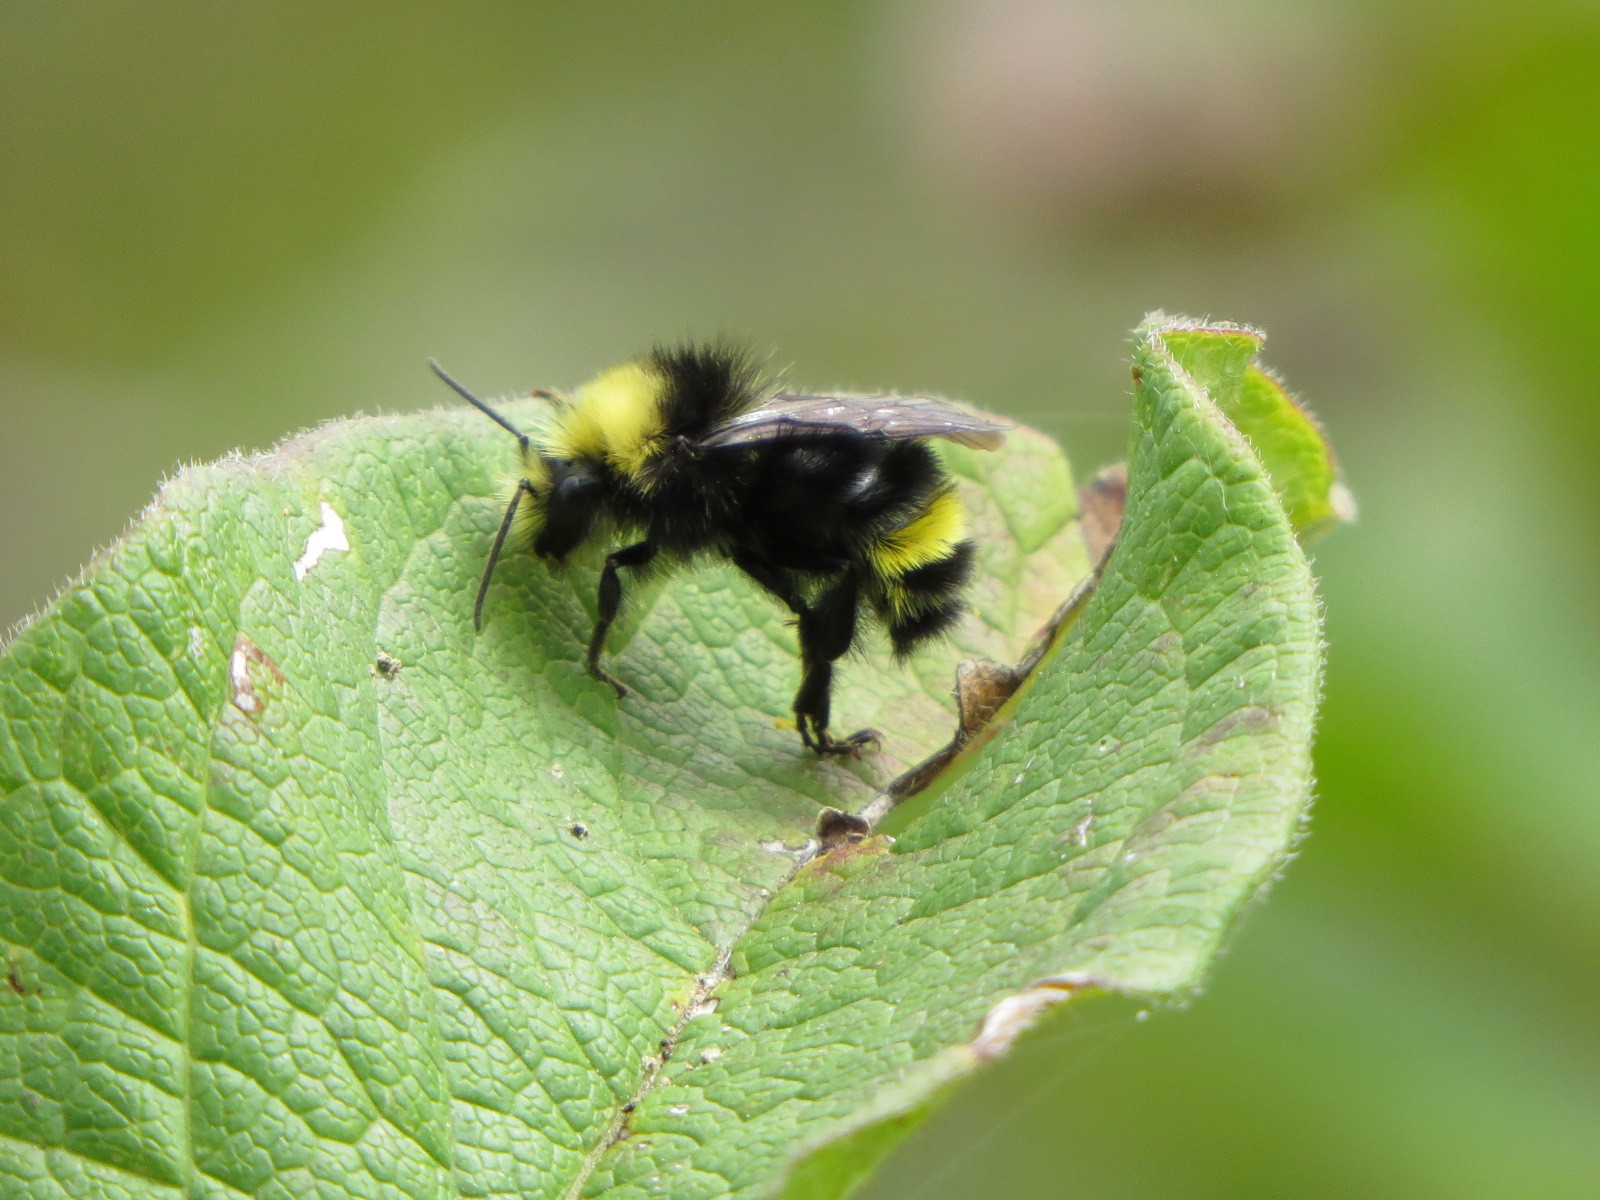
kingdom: Animalia
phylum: Arthropoda
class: Insecta
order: Hymenoptera
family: Apidae
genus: Bombus
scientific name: Bombus vosnesenskii
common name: Vosnesensky bumble bee
